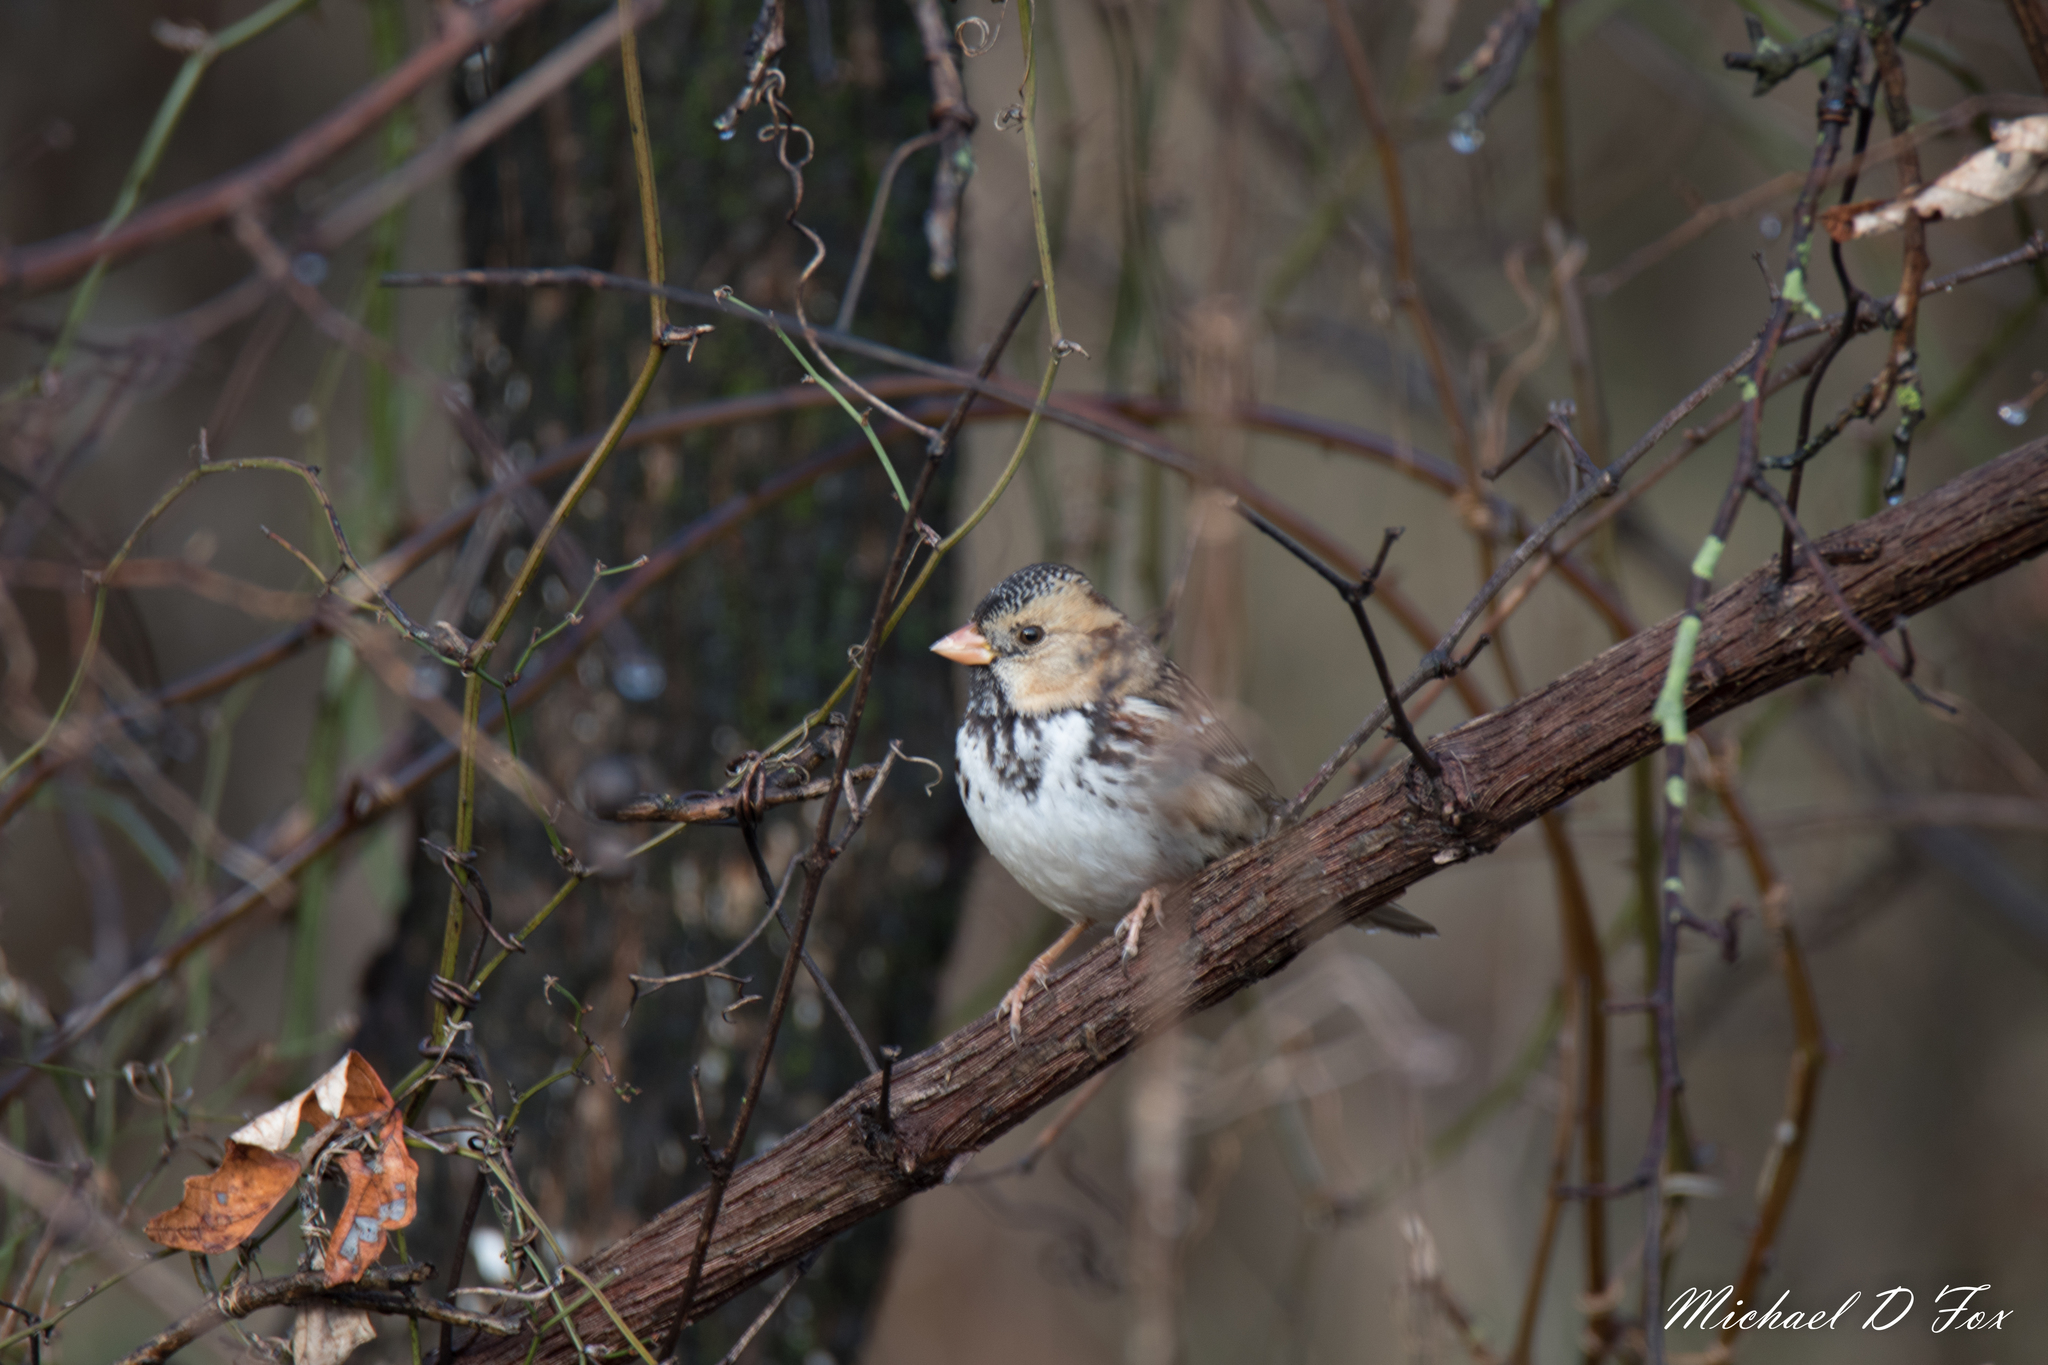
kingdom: Animalia
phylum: Chordata
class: Aves
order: Passeriformes
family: Passerellidae
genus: Zonotrichia
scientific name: Zonotrichia querula
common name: Harris's sparrow
